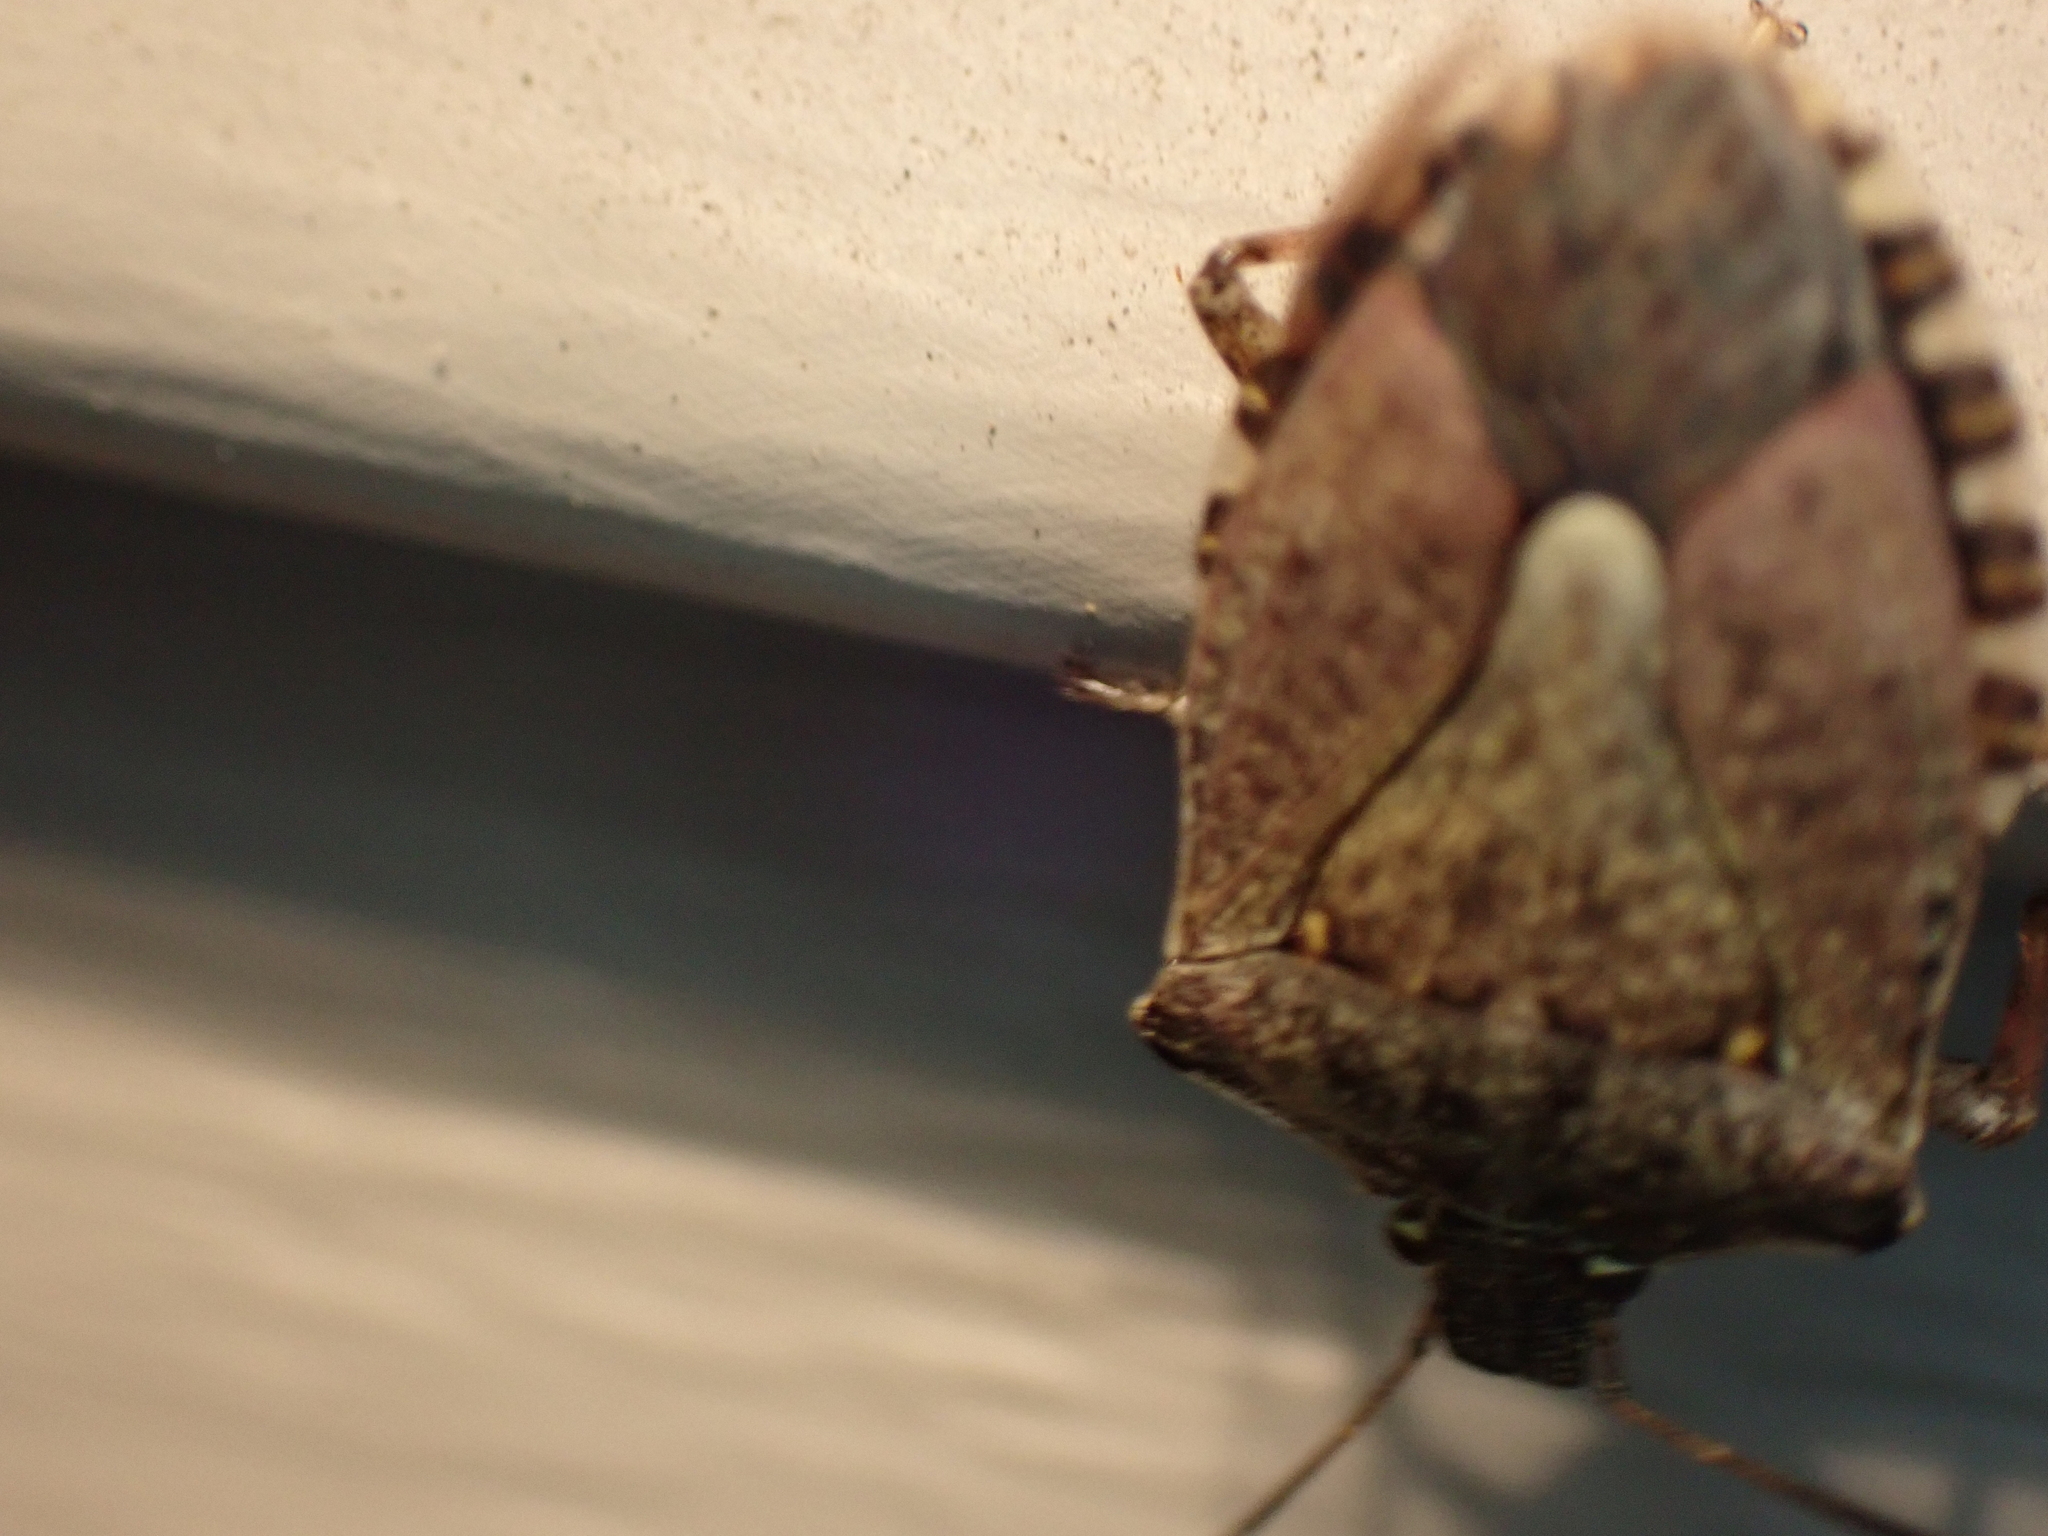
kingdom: Animalia
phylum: Arthropoda
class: Insecta
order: Hemiptera
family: Pentatomidae
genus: Halyomorpha
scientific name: Halyomorpha halys
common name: Brown marmorated stink bug
